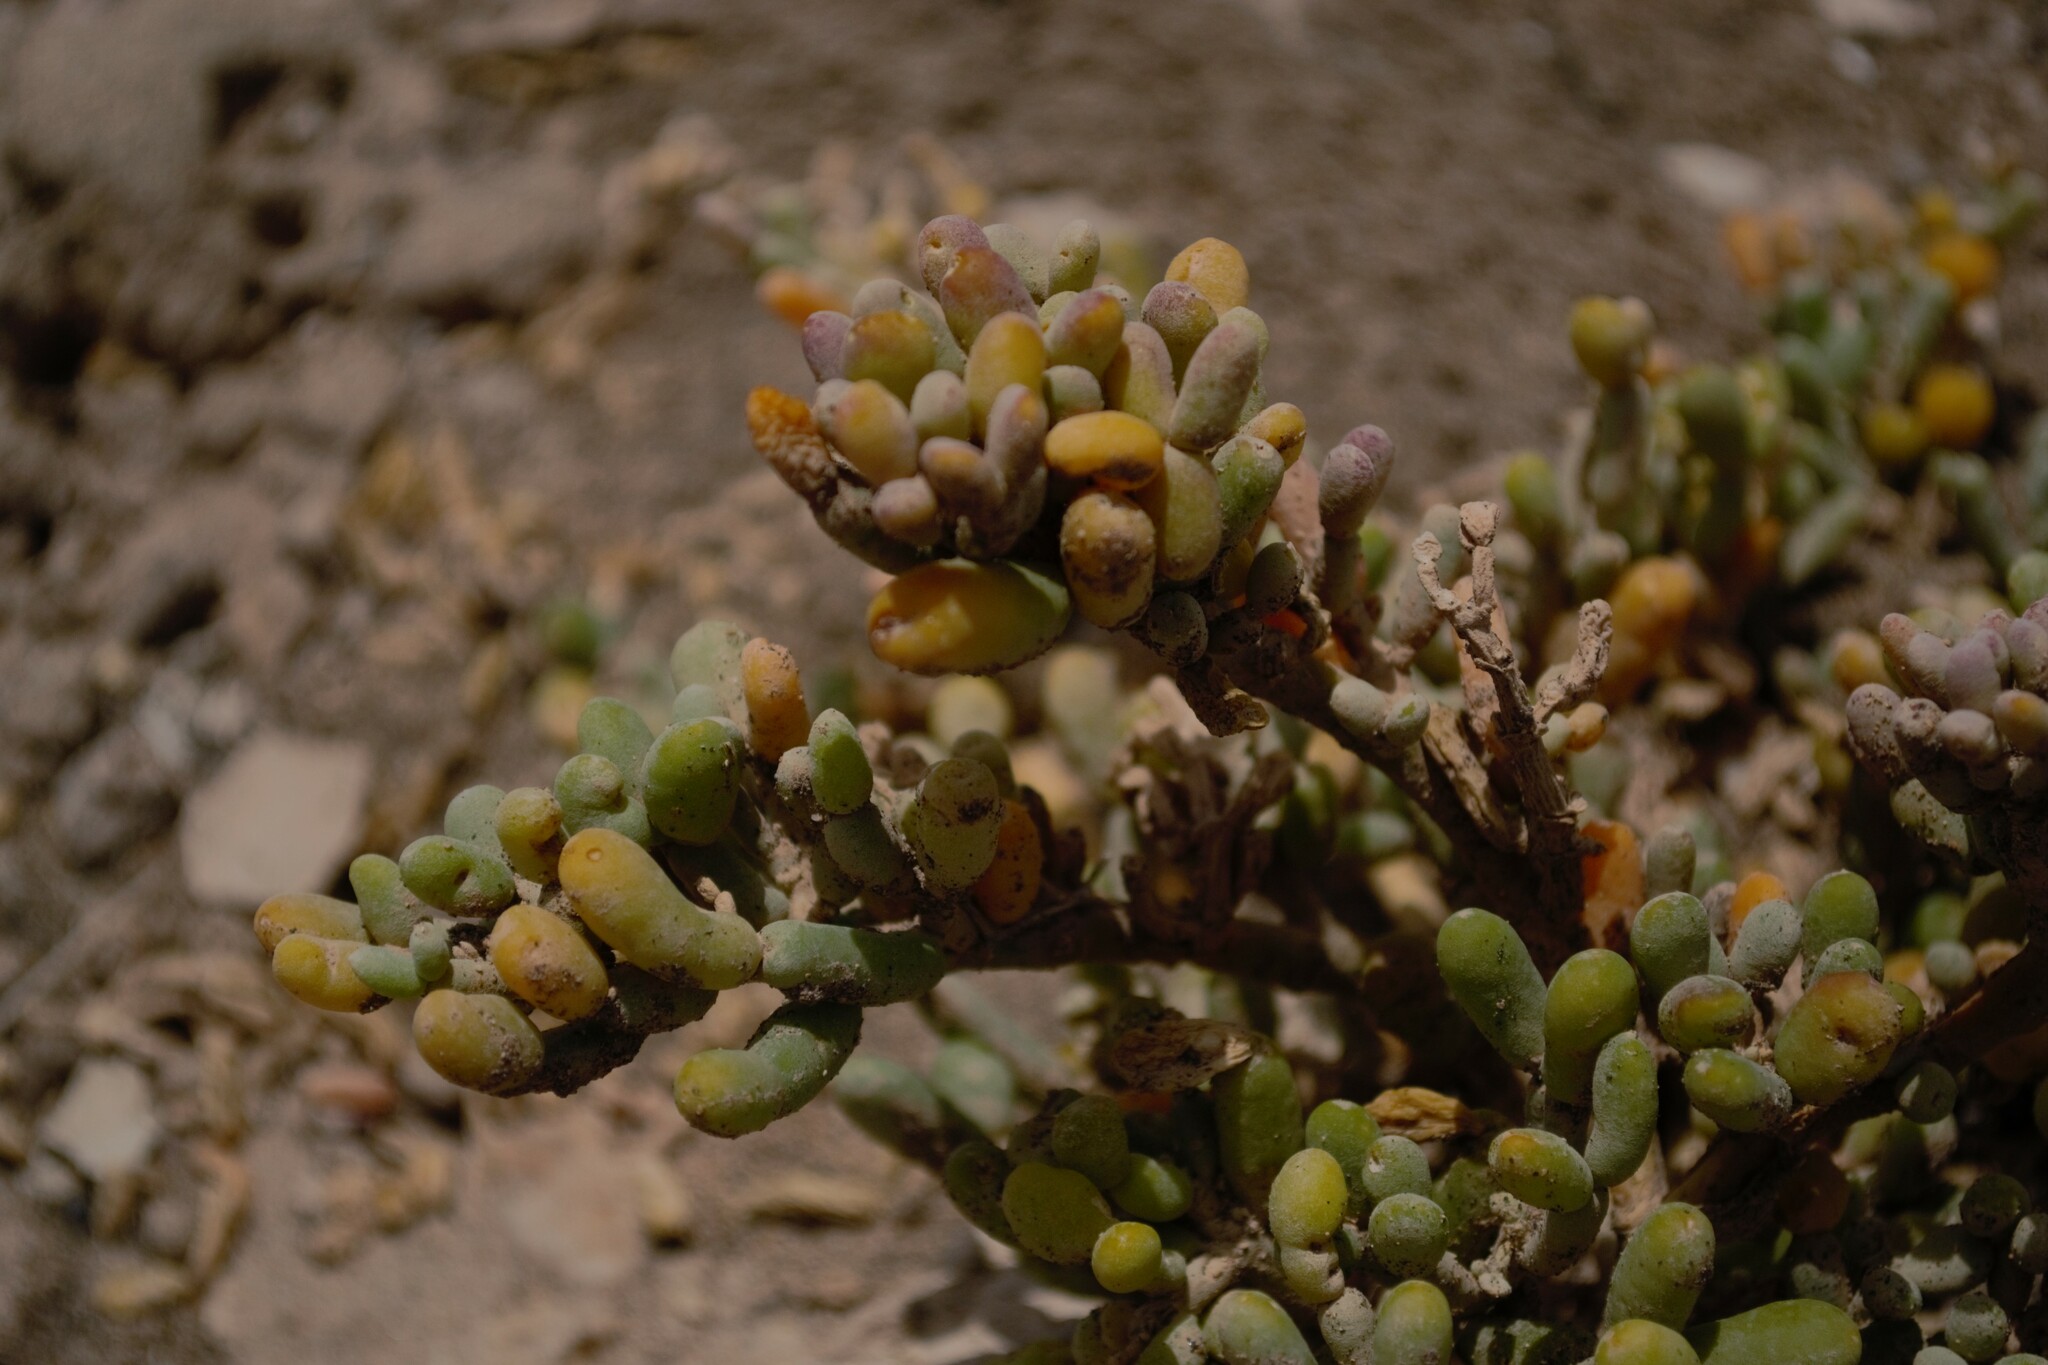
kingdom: Plantae
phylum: Tracheophyta
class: Magnoliopsida
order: Zygophyllales
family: Zygophyllaceae
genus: Tetraena
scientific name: Tetraena fontanesii
